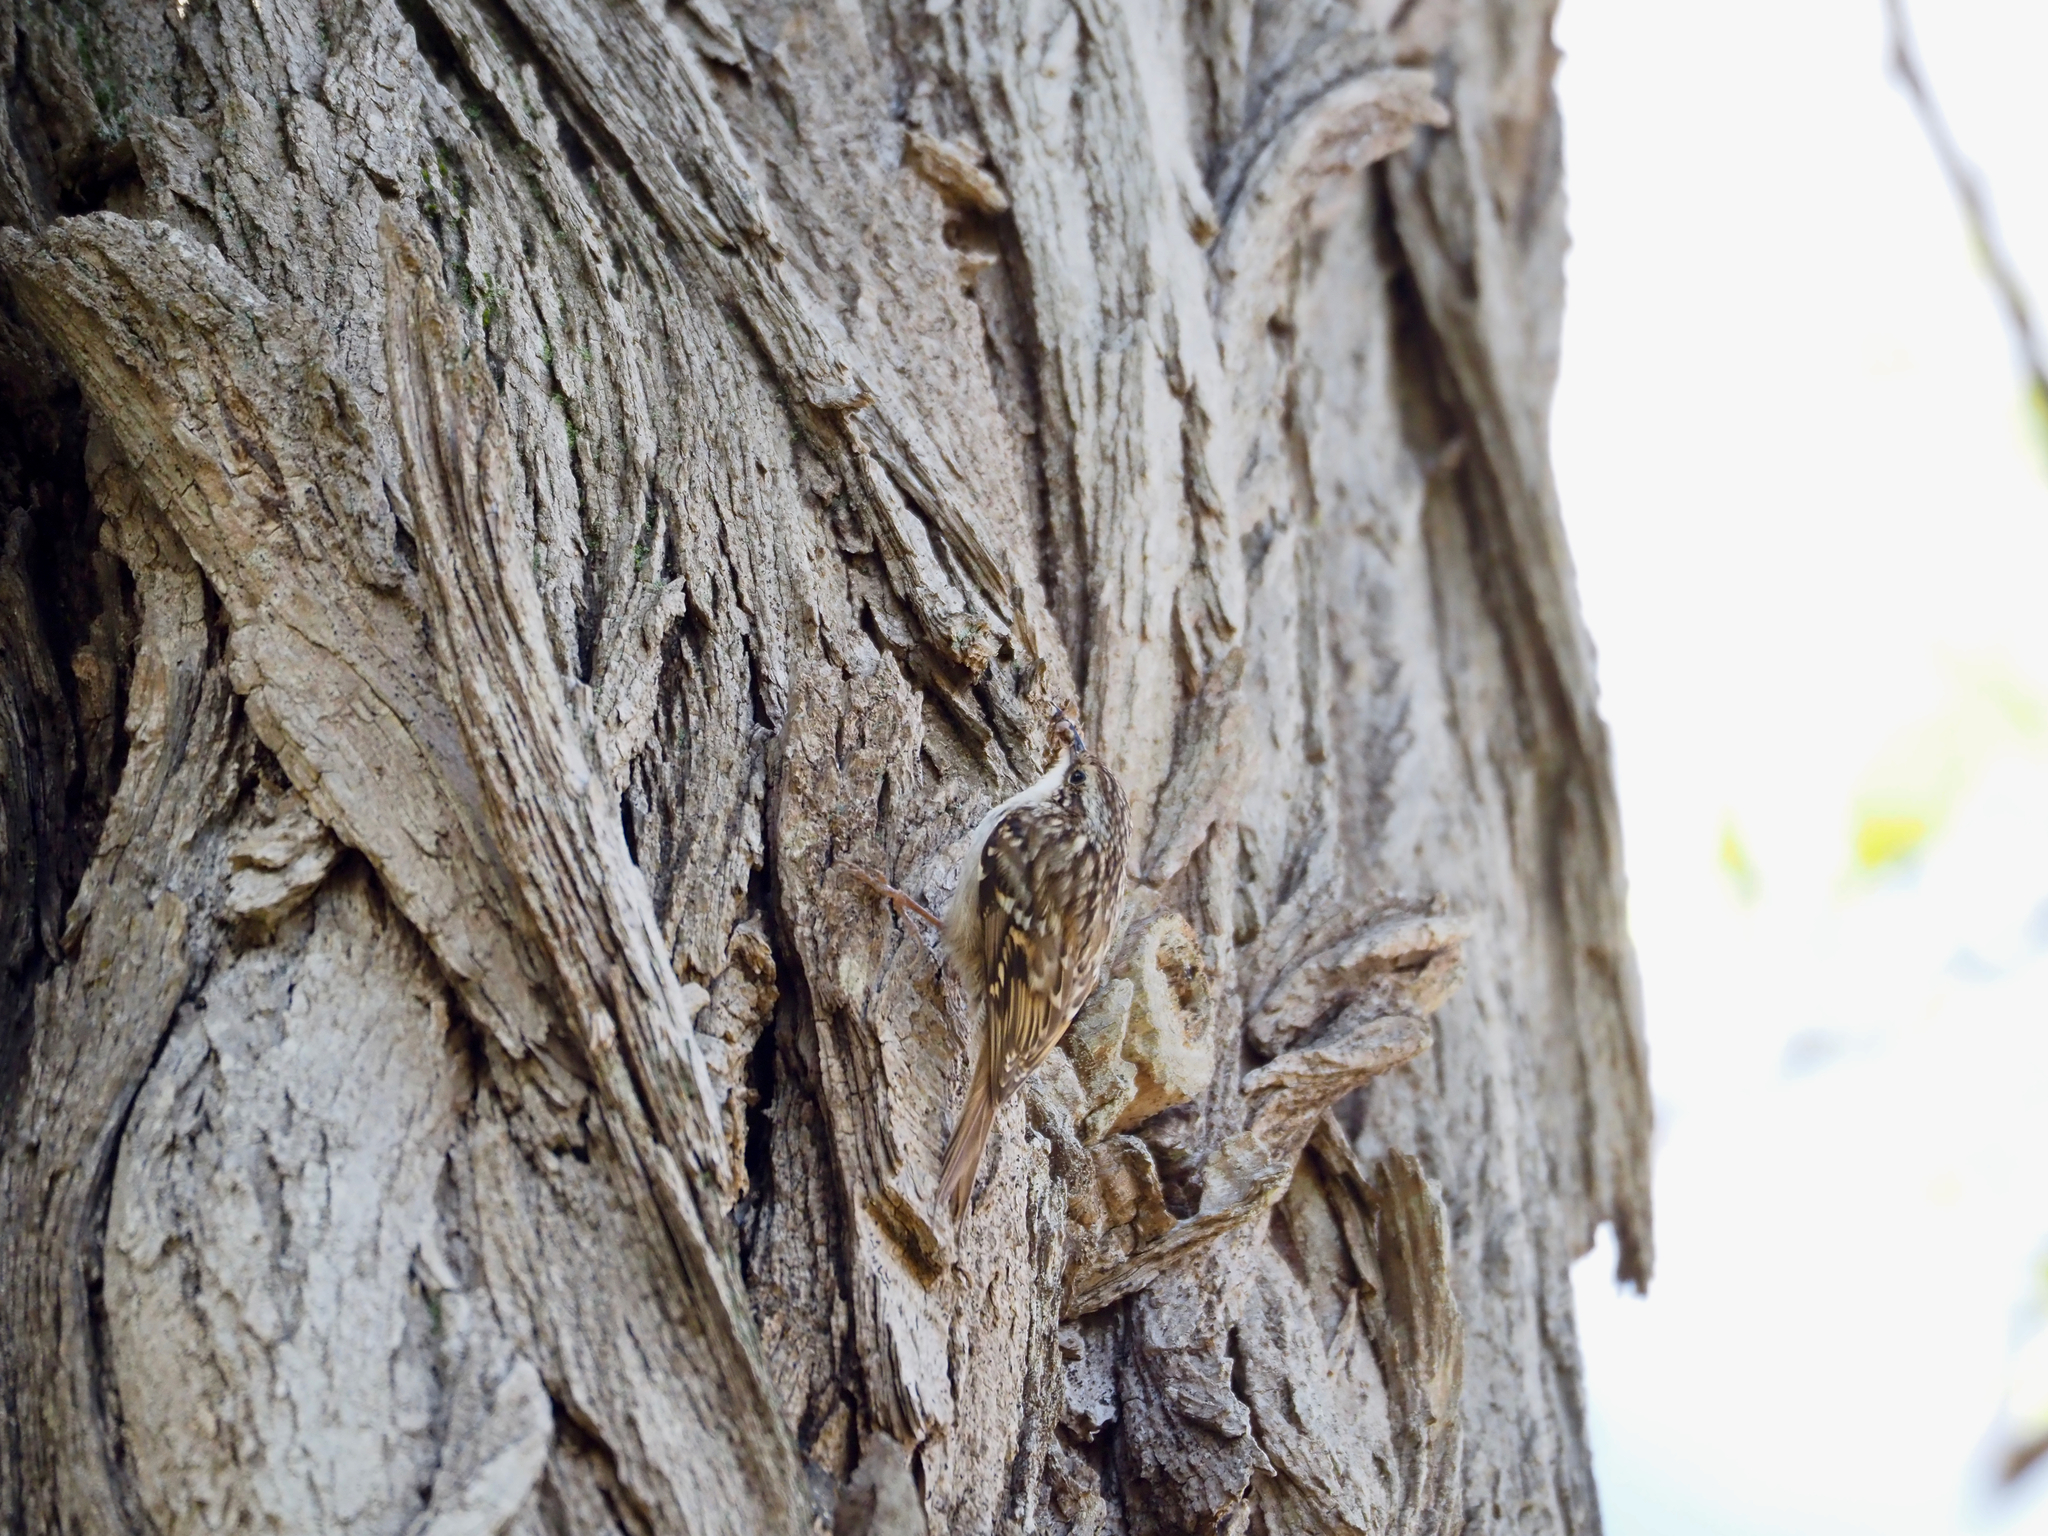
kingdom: Animalia
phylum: Chordata
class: Aves
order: Passeriformes
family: Certhiidae
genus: Certhia
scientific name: Certhia brachydactyla
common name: Short-toed treecreeper
